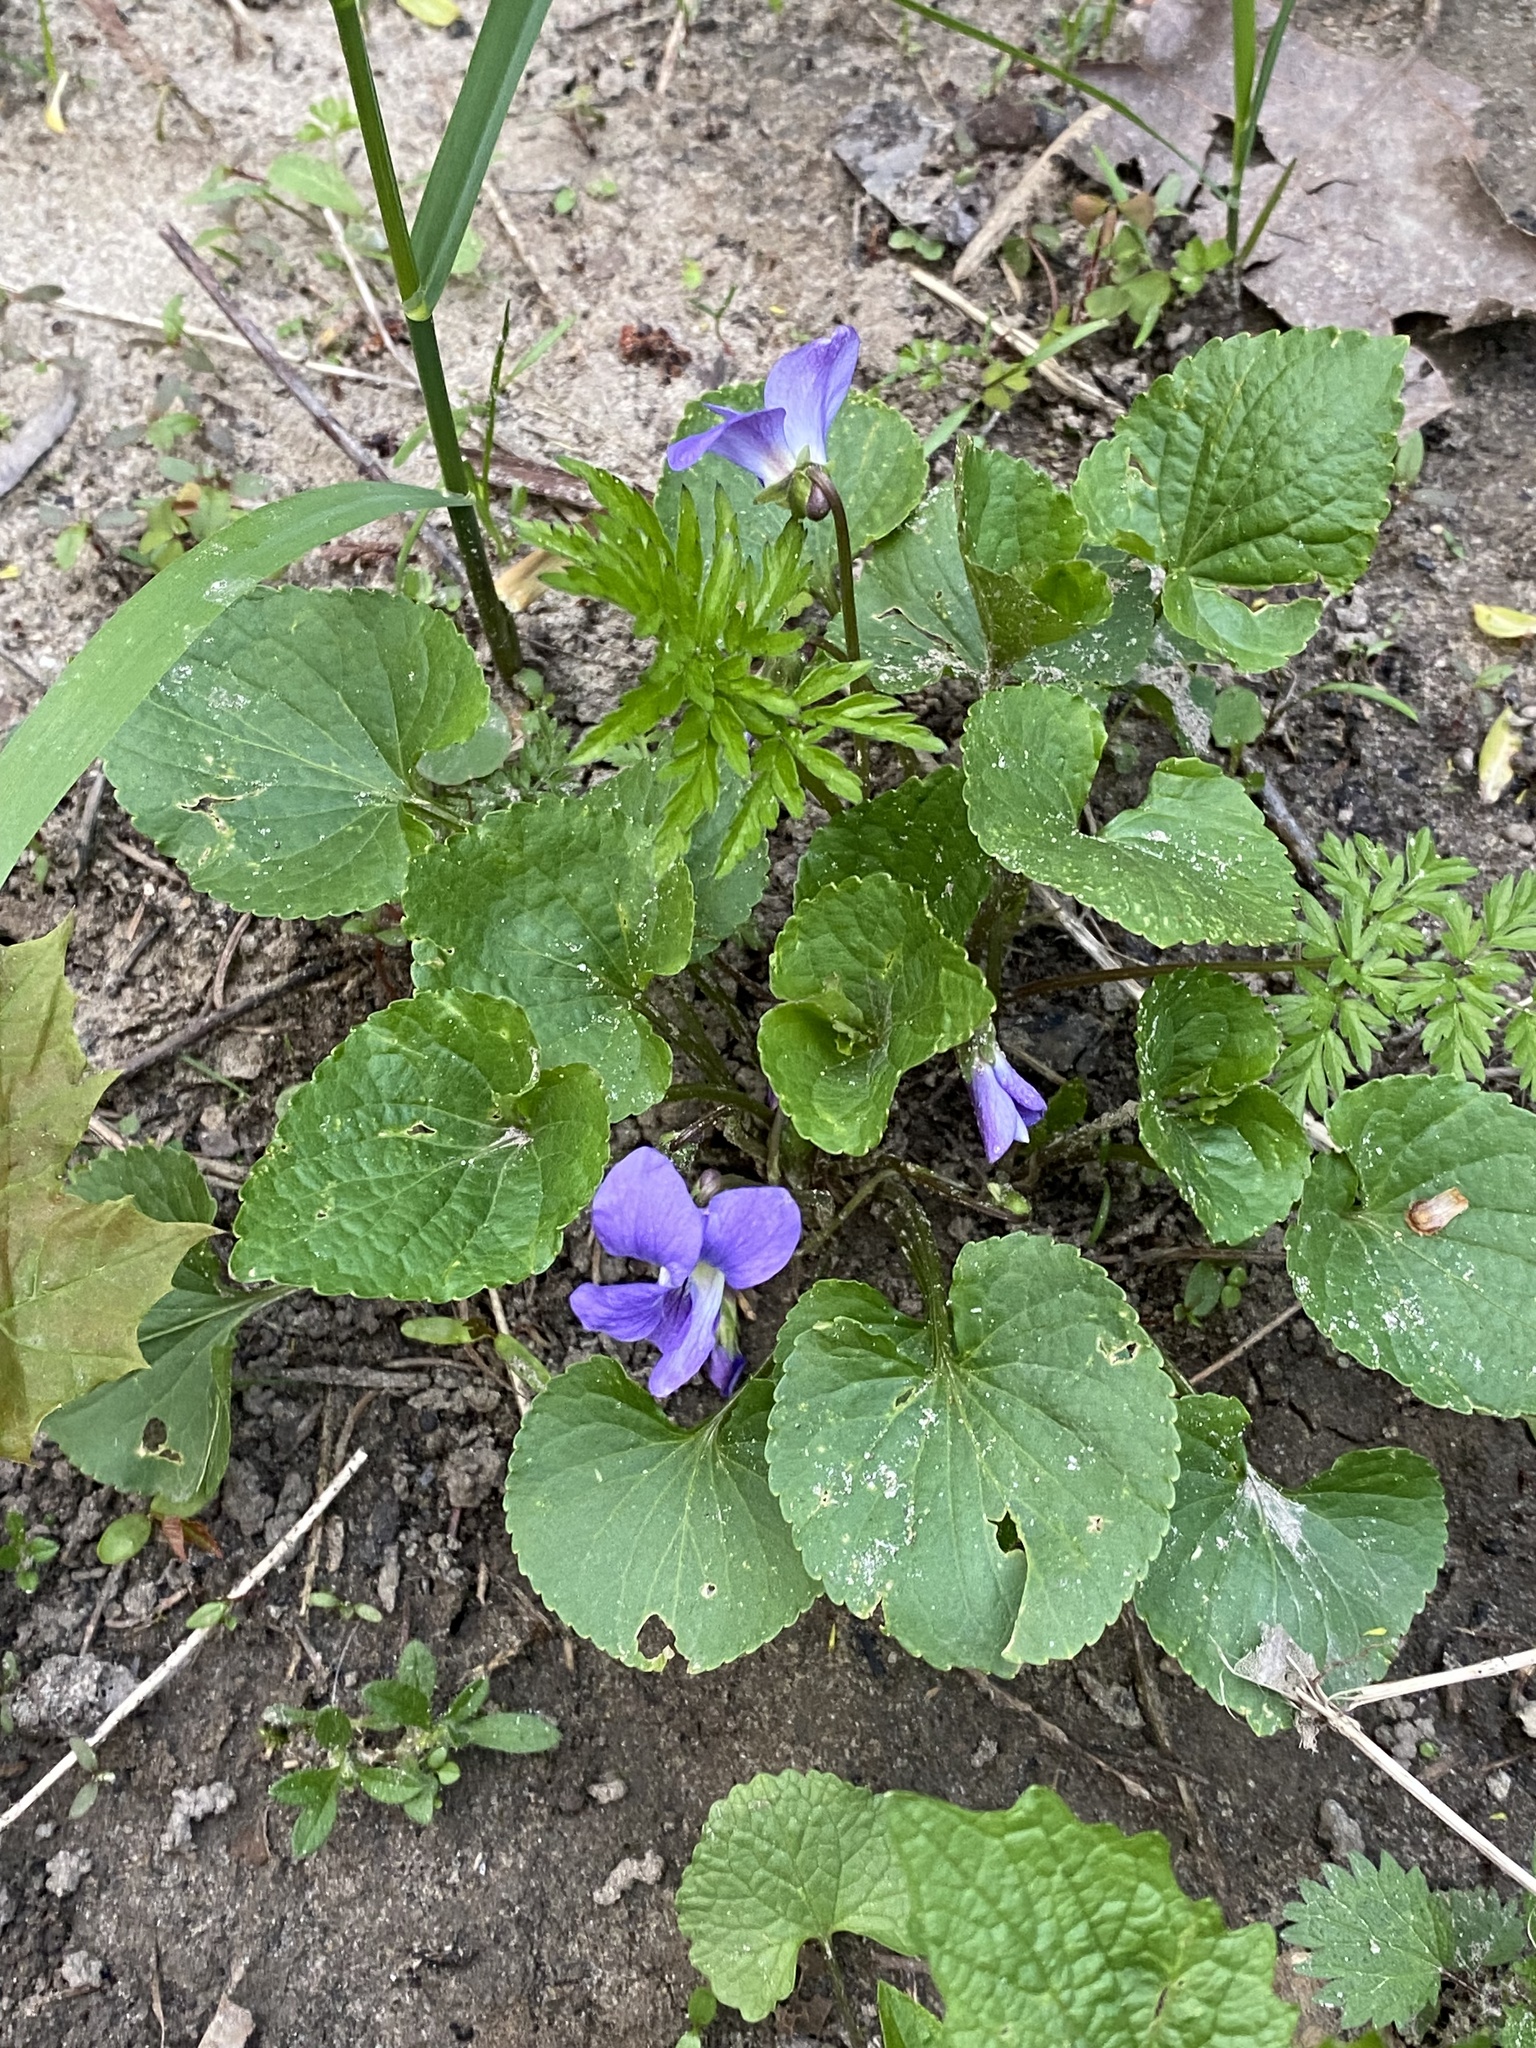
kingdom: Plantae
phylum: Tracheophyta
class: Magnoliopsida
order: Malpighiales
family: Violaceae
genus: Viola
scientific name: Viola sororia
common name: Dooryard violet
